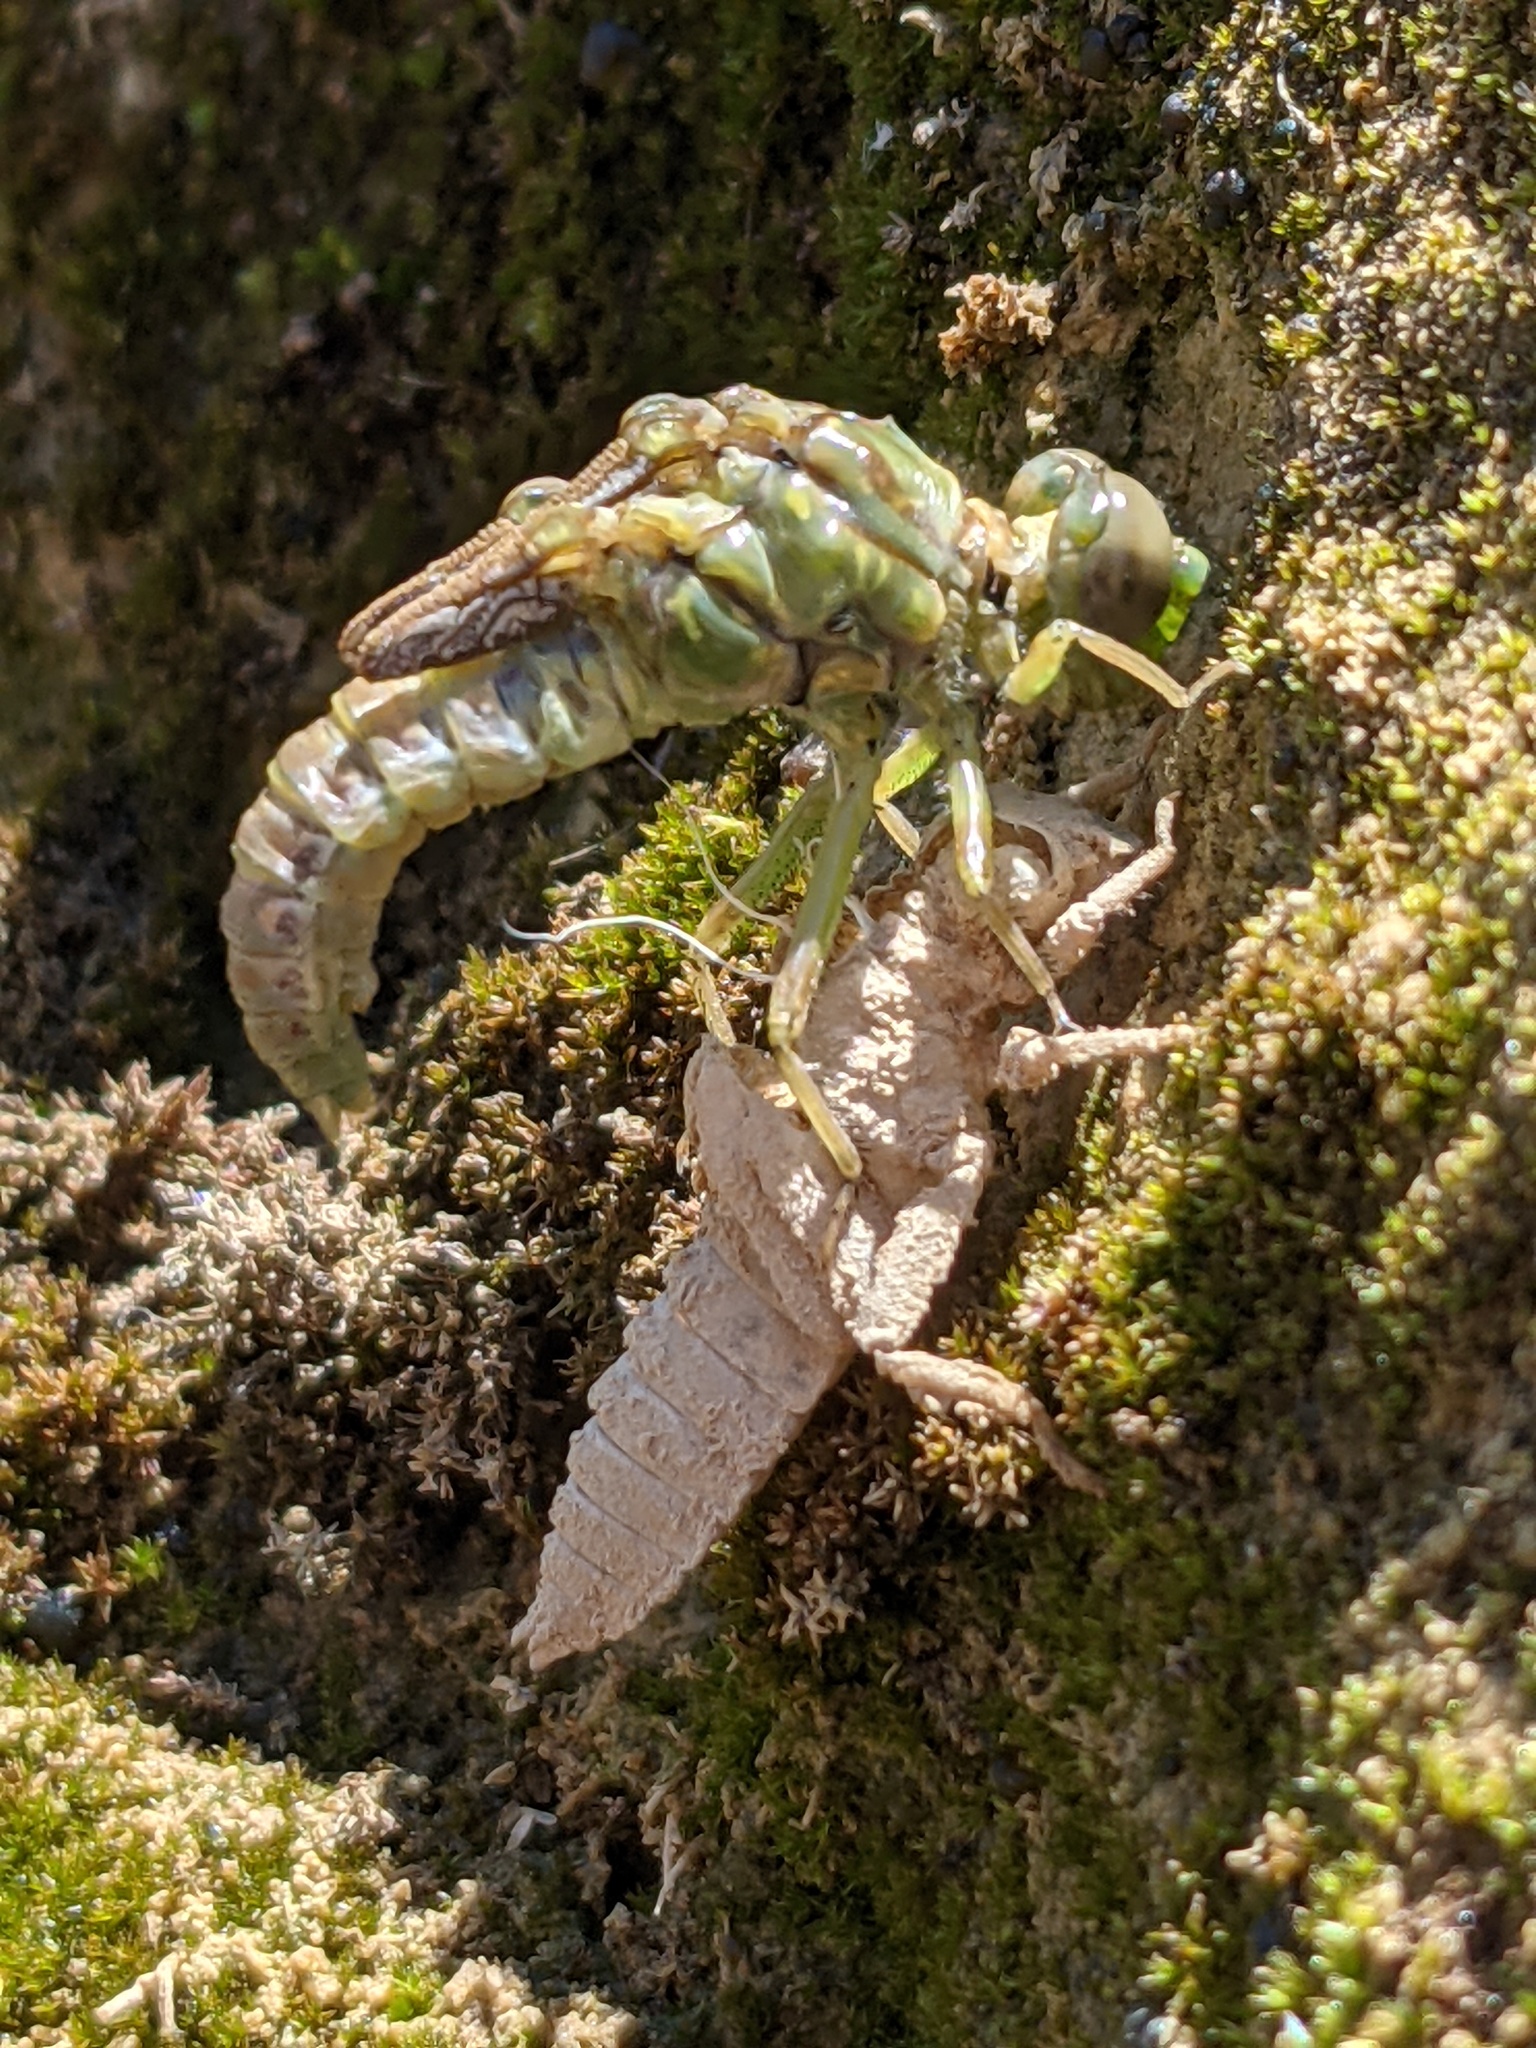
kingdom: Animalia
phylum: Arthropoda
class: Insecta
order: Odonata
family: Gomphidae
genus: Onychogomphus
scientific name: Onychogomphus forcipatus
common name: Small pincertail
